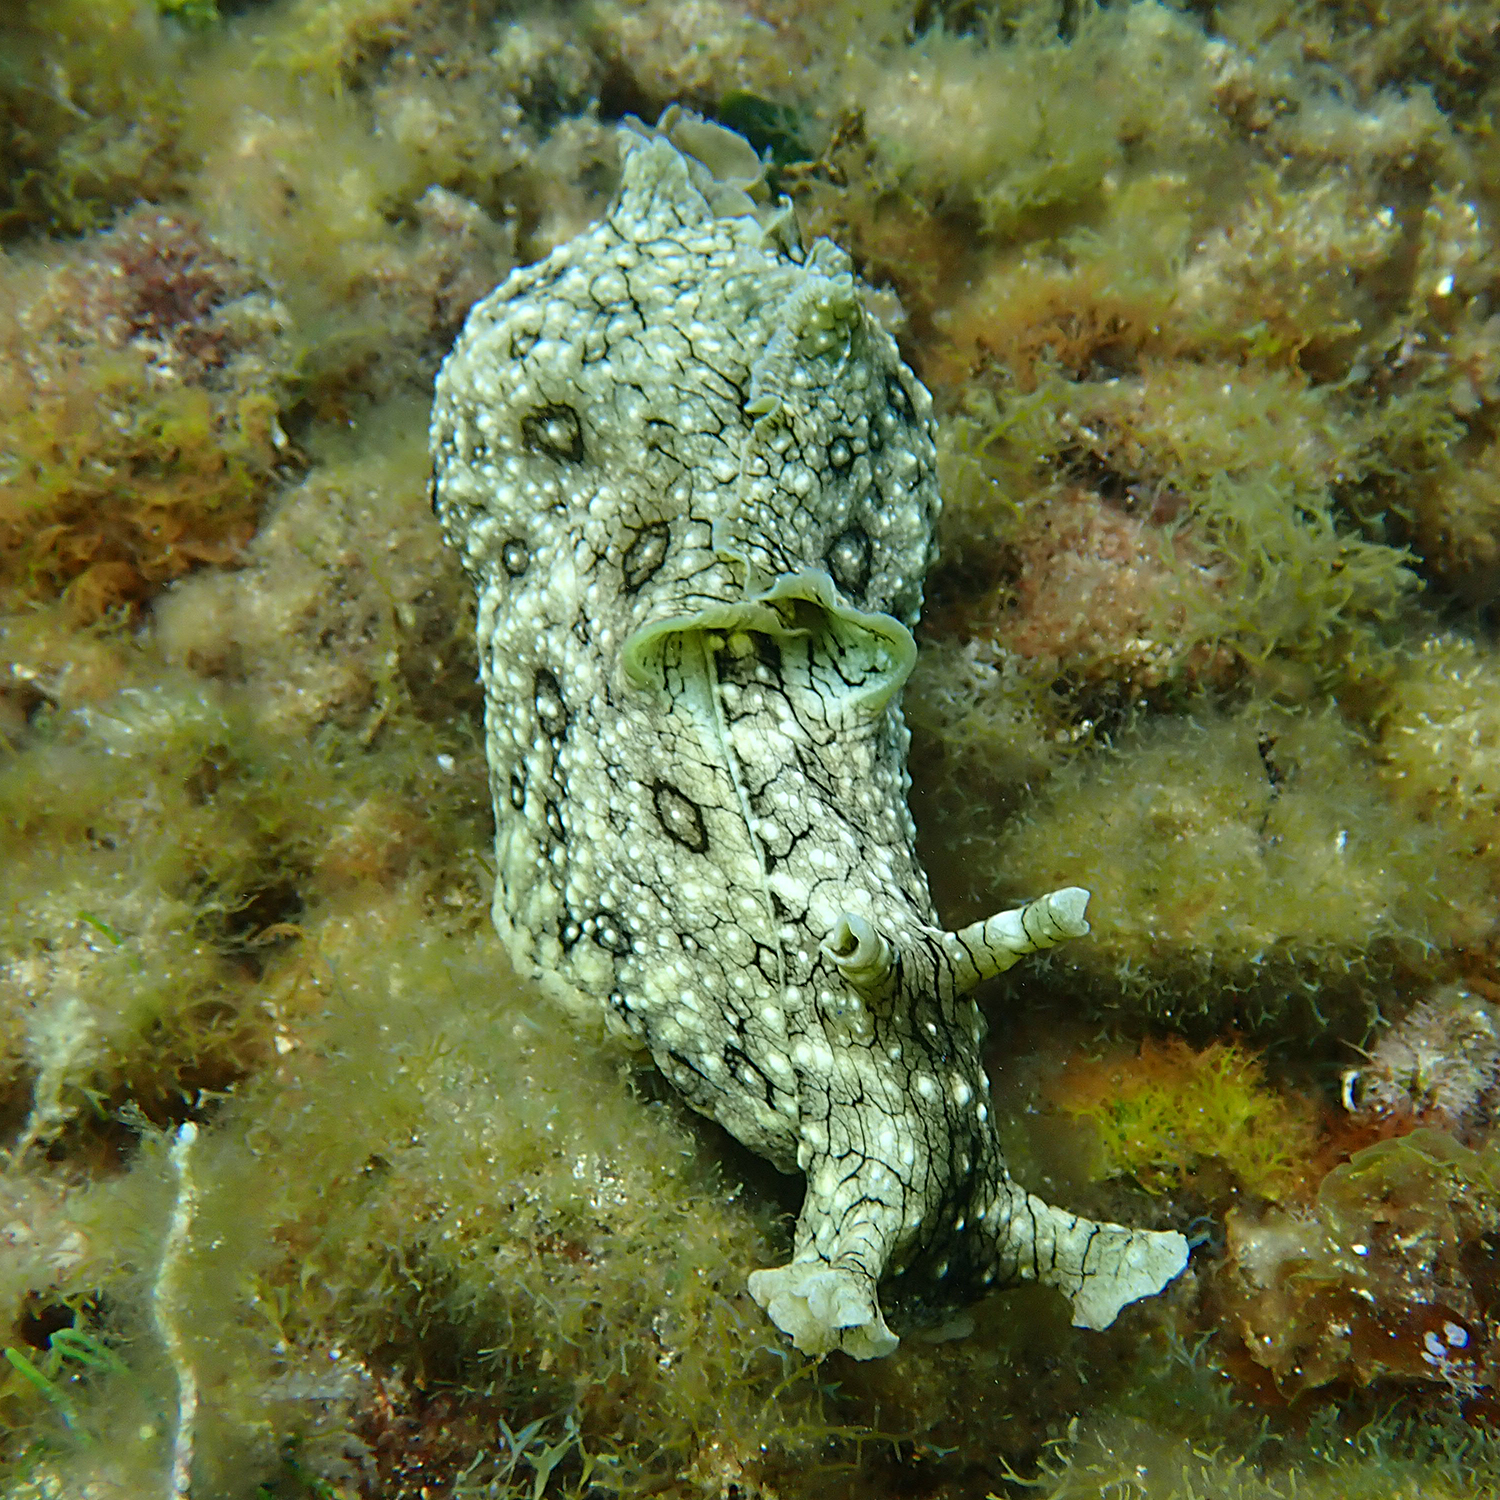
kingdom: Animalia
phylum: Mollusca
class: Gastropoda
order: Aplysiida
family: Aplysiidae
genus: Aplysia
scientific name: Aplysia argus
